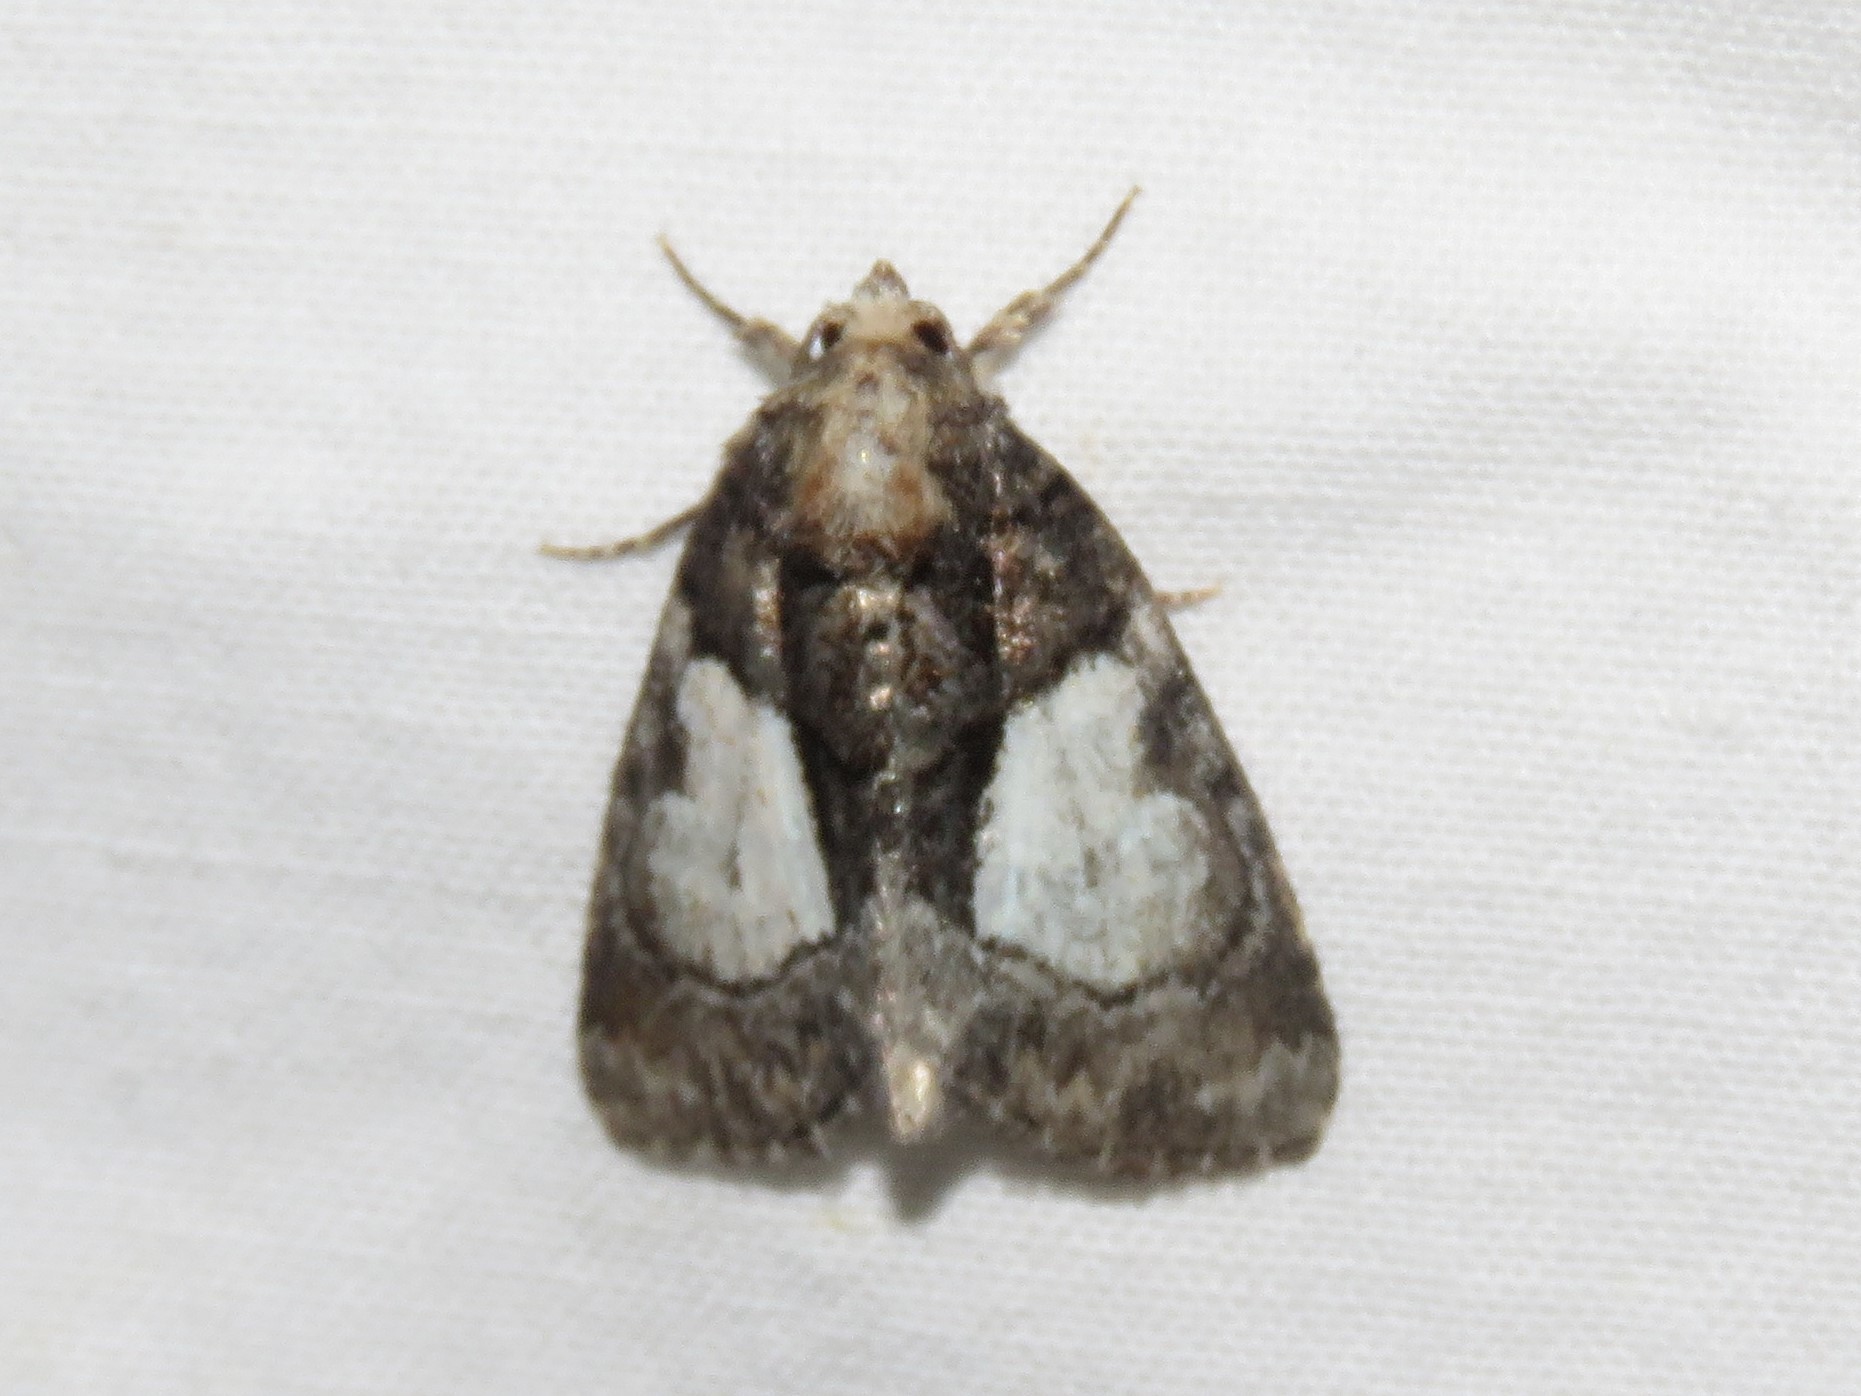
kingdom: Animalia
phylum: Arthropoda
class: Insecta
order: Lepidoptera
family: Noctuidae
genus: Chytonix
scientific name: Chytonix palliatricula
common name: Cloaked marvel
